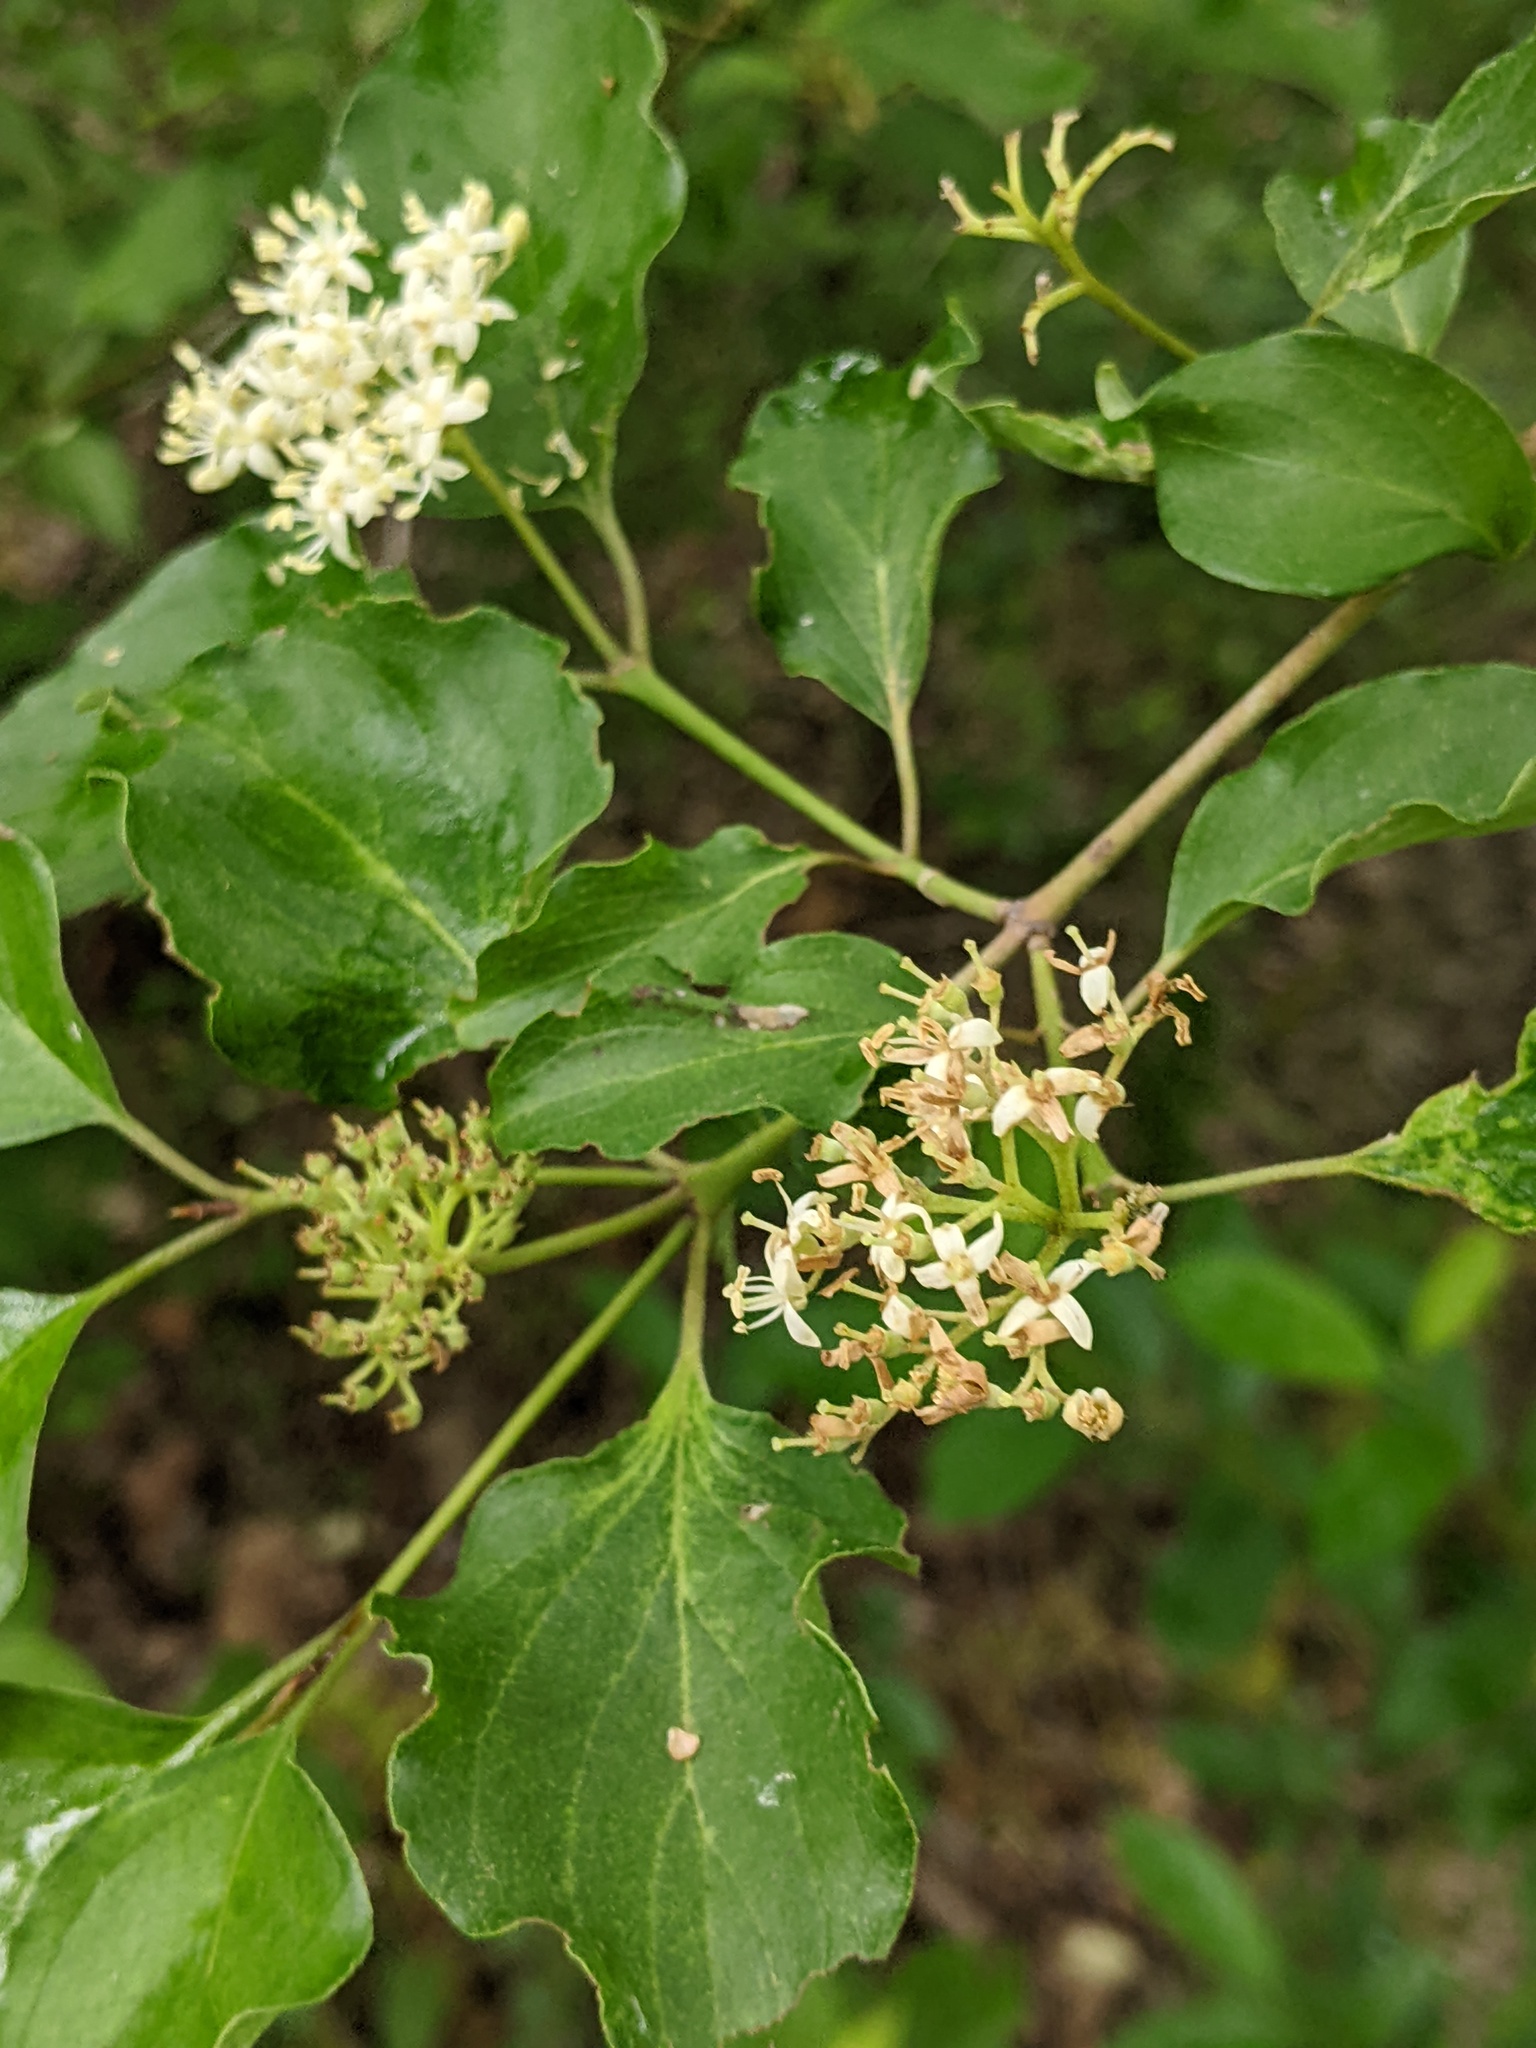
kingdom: Plantae
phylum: Tracheophyta
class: Magnoliopsida
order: Cornales
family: Cornaceae
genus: Cornus
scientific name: Cornus drummondii
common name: Rough-leaf dogwood
